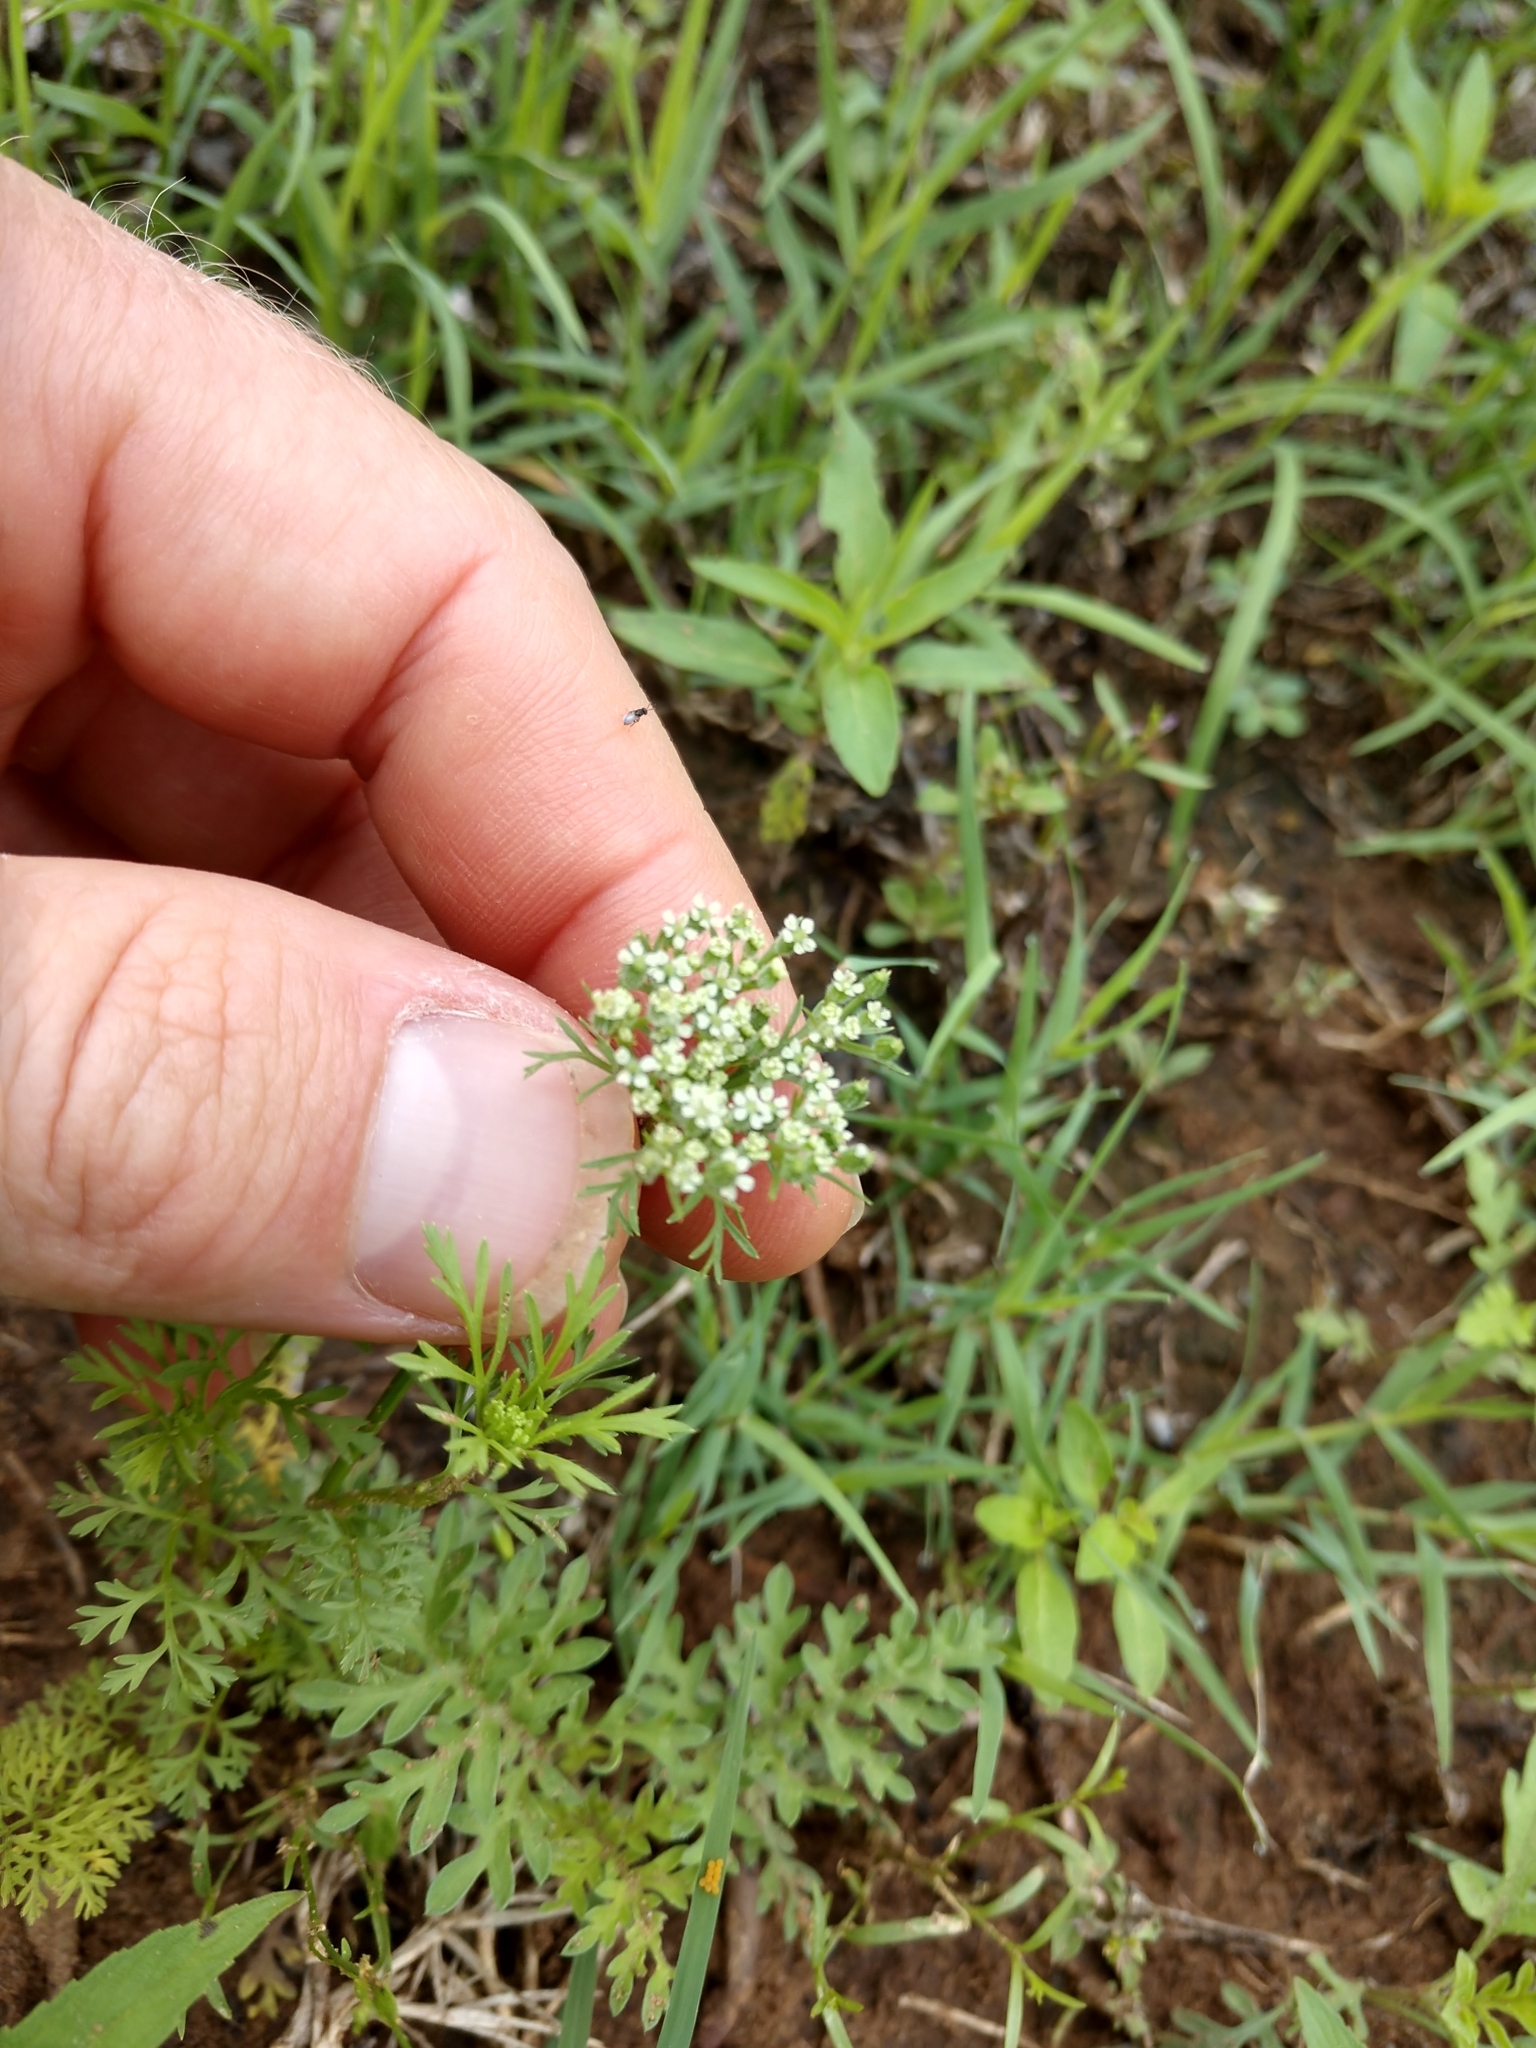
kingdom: Plantae
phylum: Tracheophyta
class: Magnoliopsida
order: Apiales
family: Apiaceae
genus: Daucus
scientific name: Daucus pusillus
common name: Southwest wild carrot
